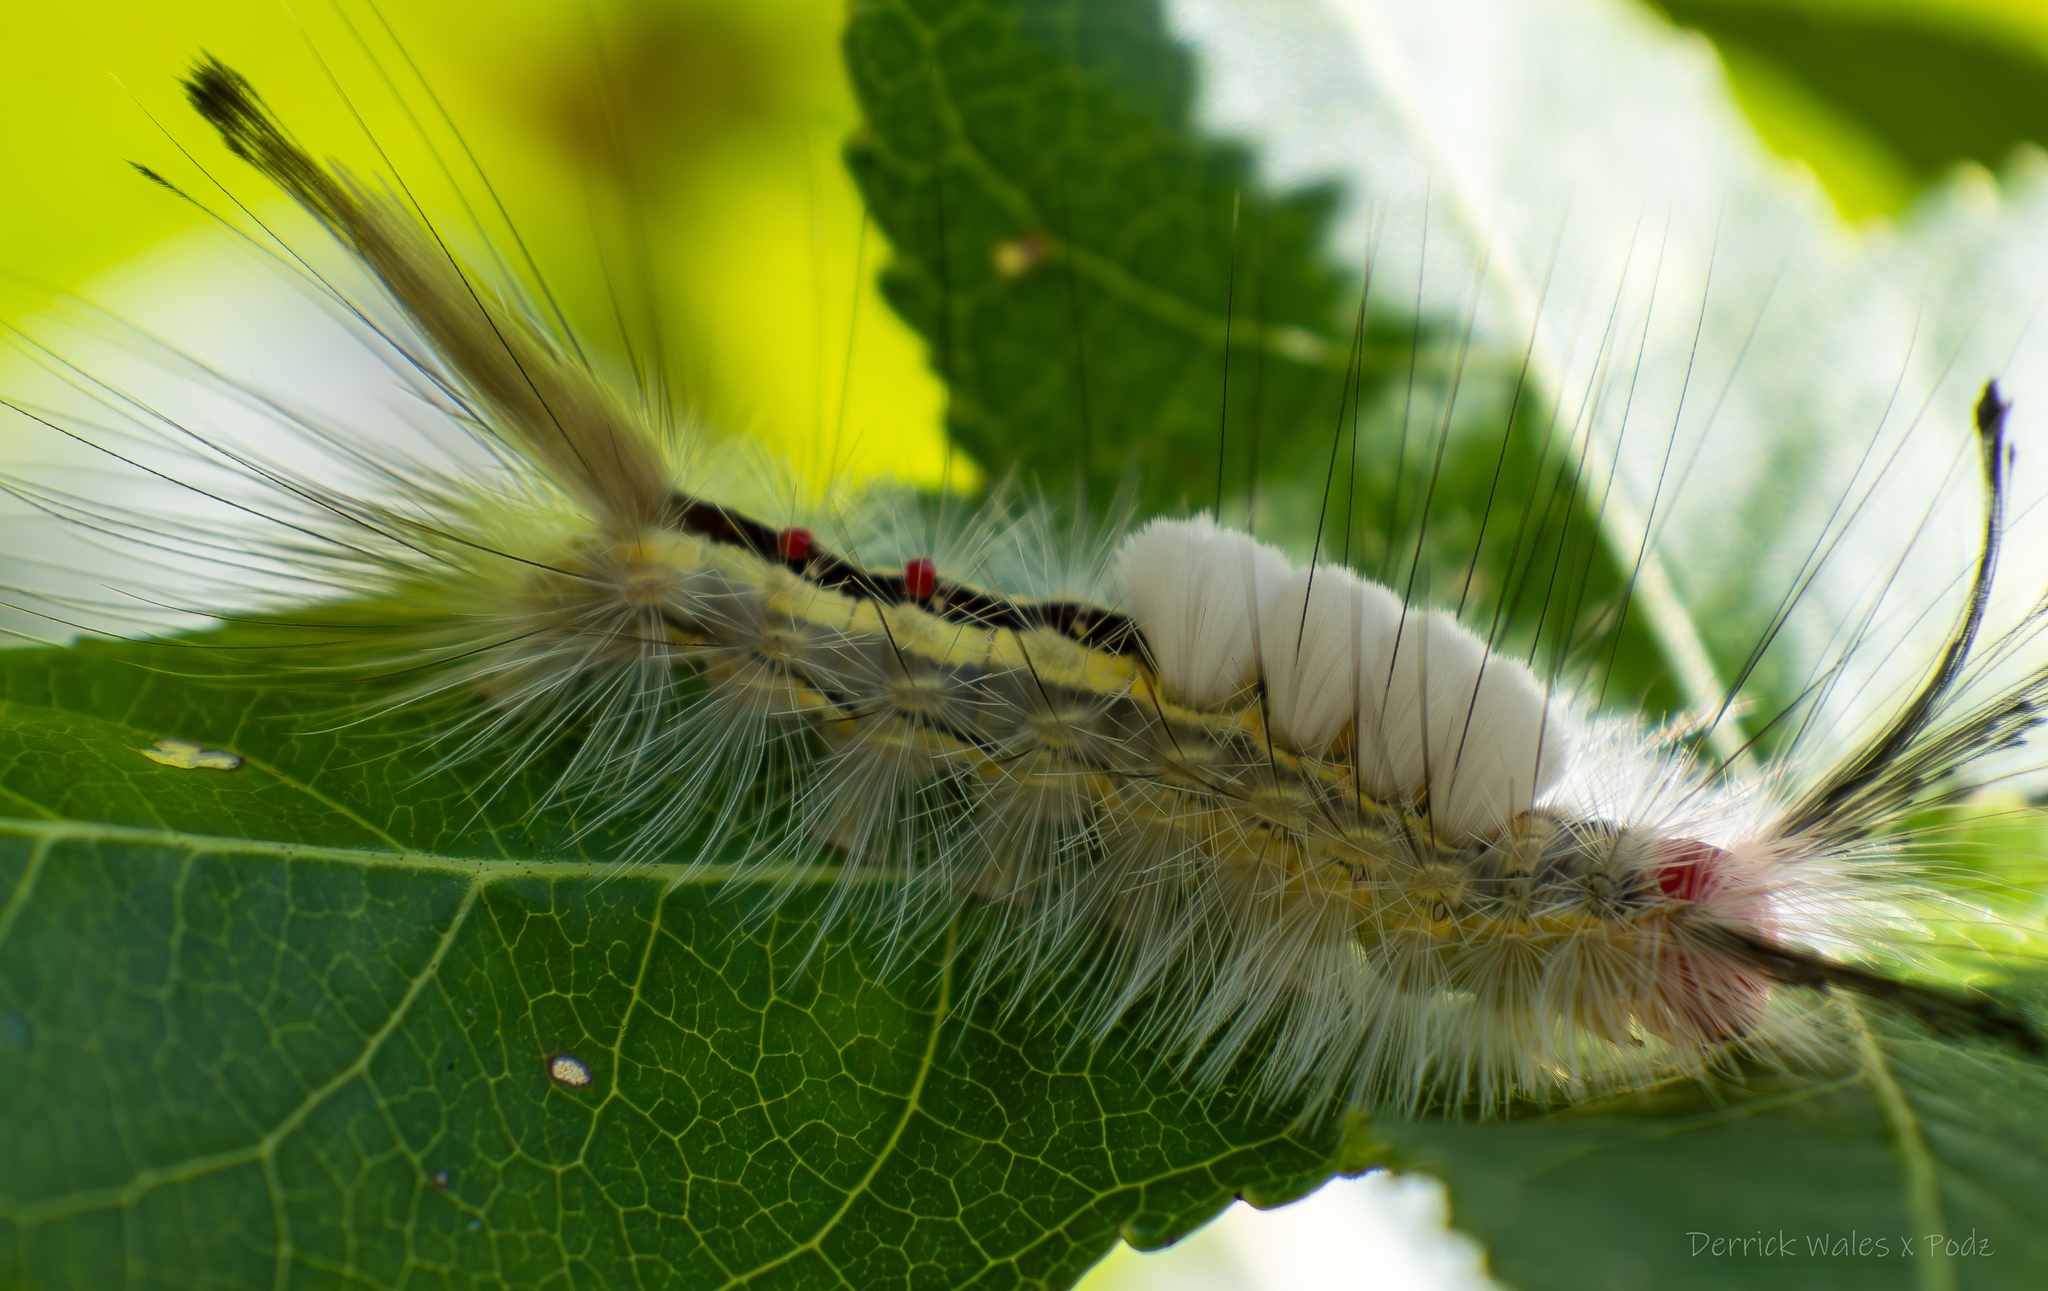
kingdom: Animalia
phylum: Arthropoda
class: Insecta
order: Lepidoptera
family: Erebidae
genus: Orgyia
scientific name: Orgyia leucostigma
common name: White-marked tussock moth
